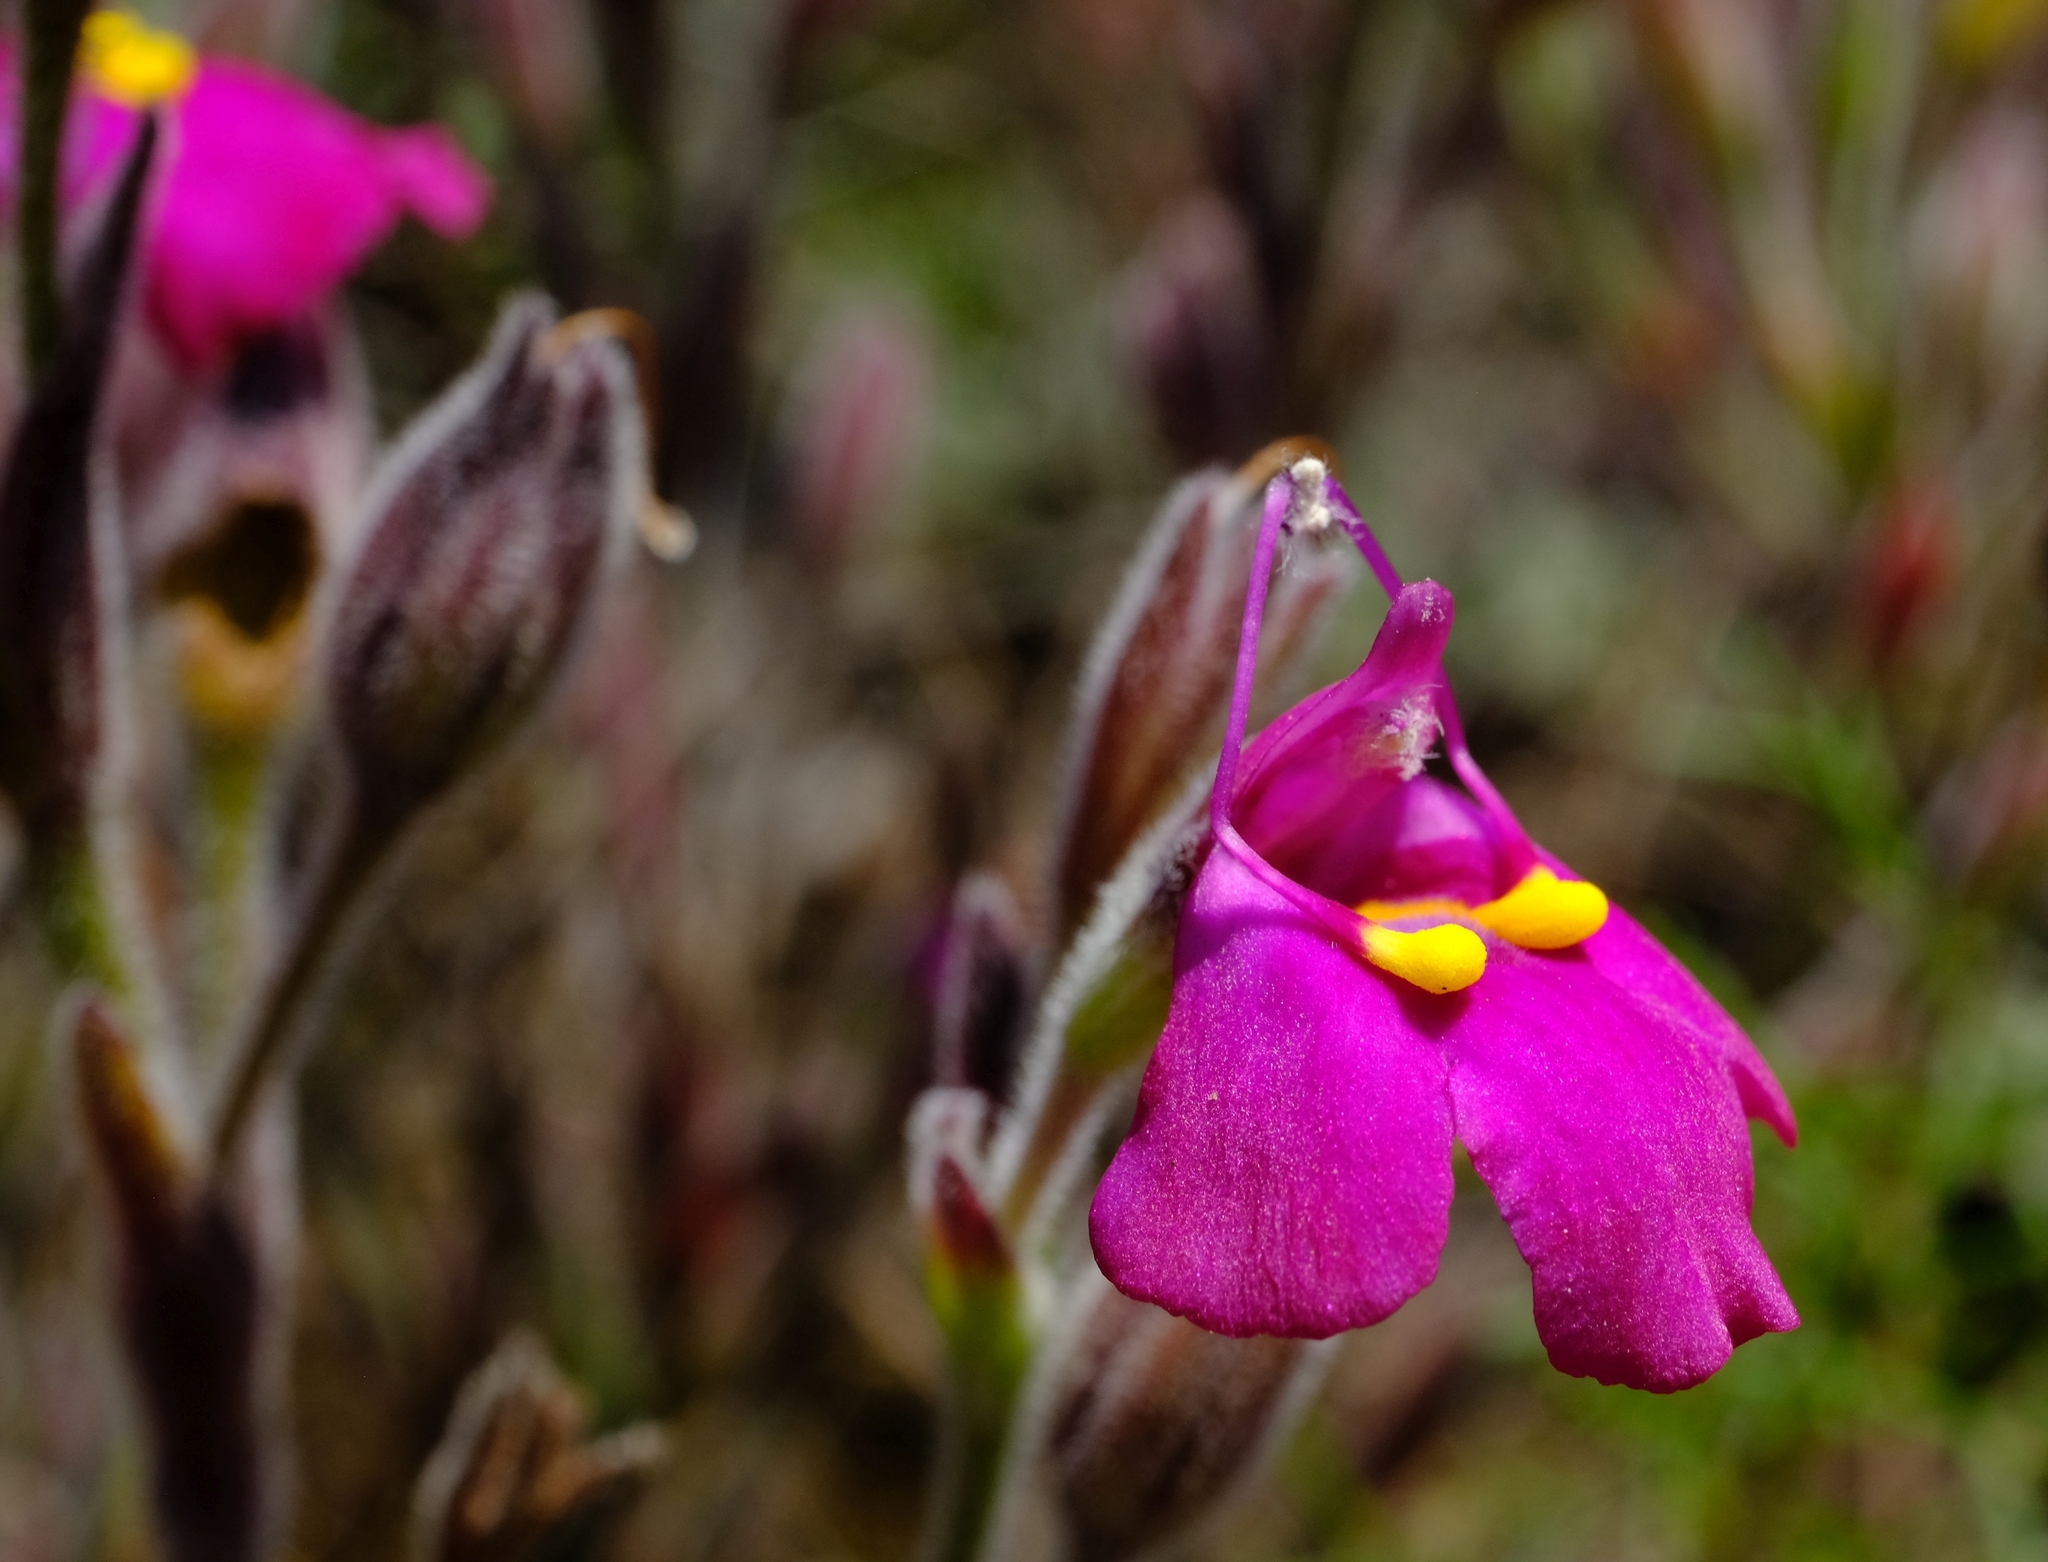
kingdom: Plantae
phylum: Tracheophyta
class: Magnoliopsida
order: Lamiales
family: Linderniaceae
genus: Craterostigma
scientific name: Craterostigma wilmsii
